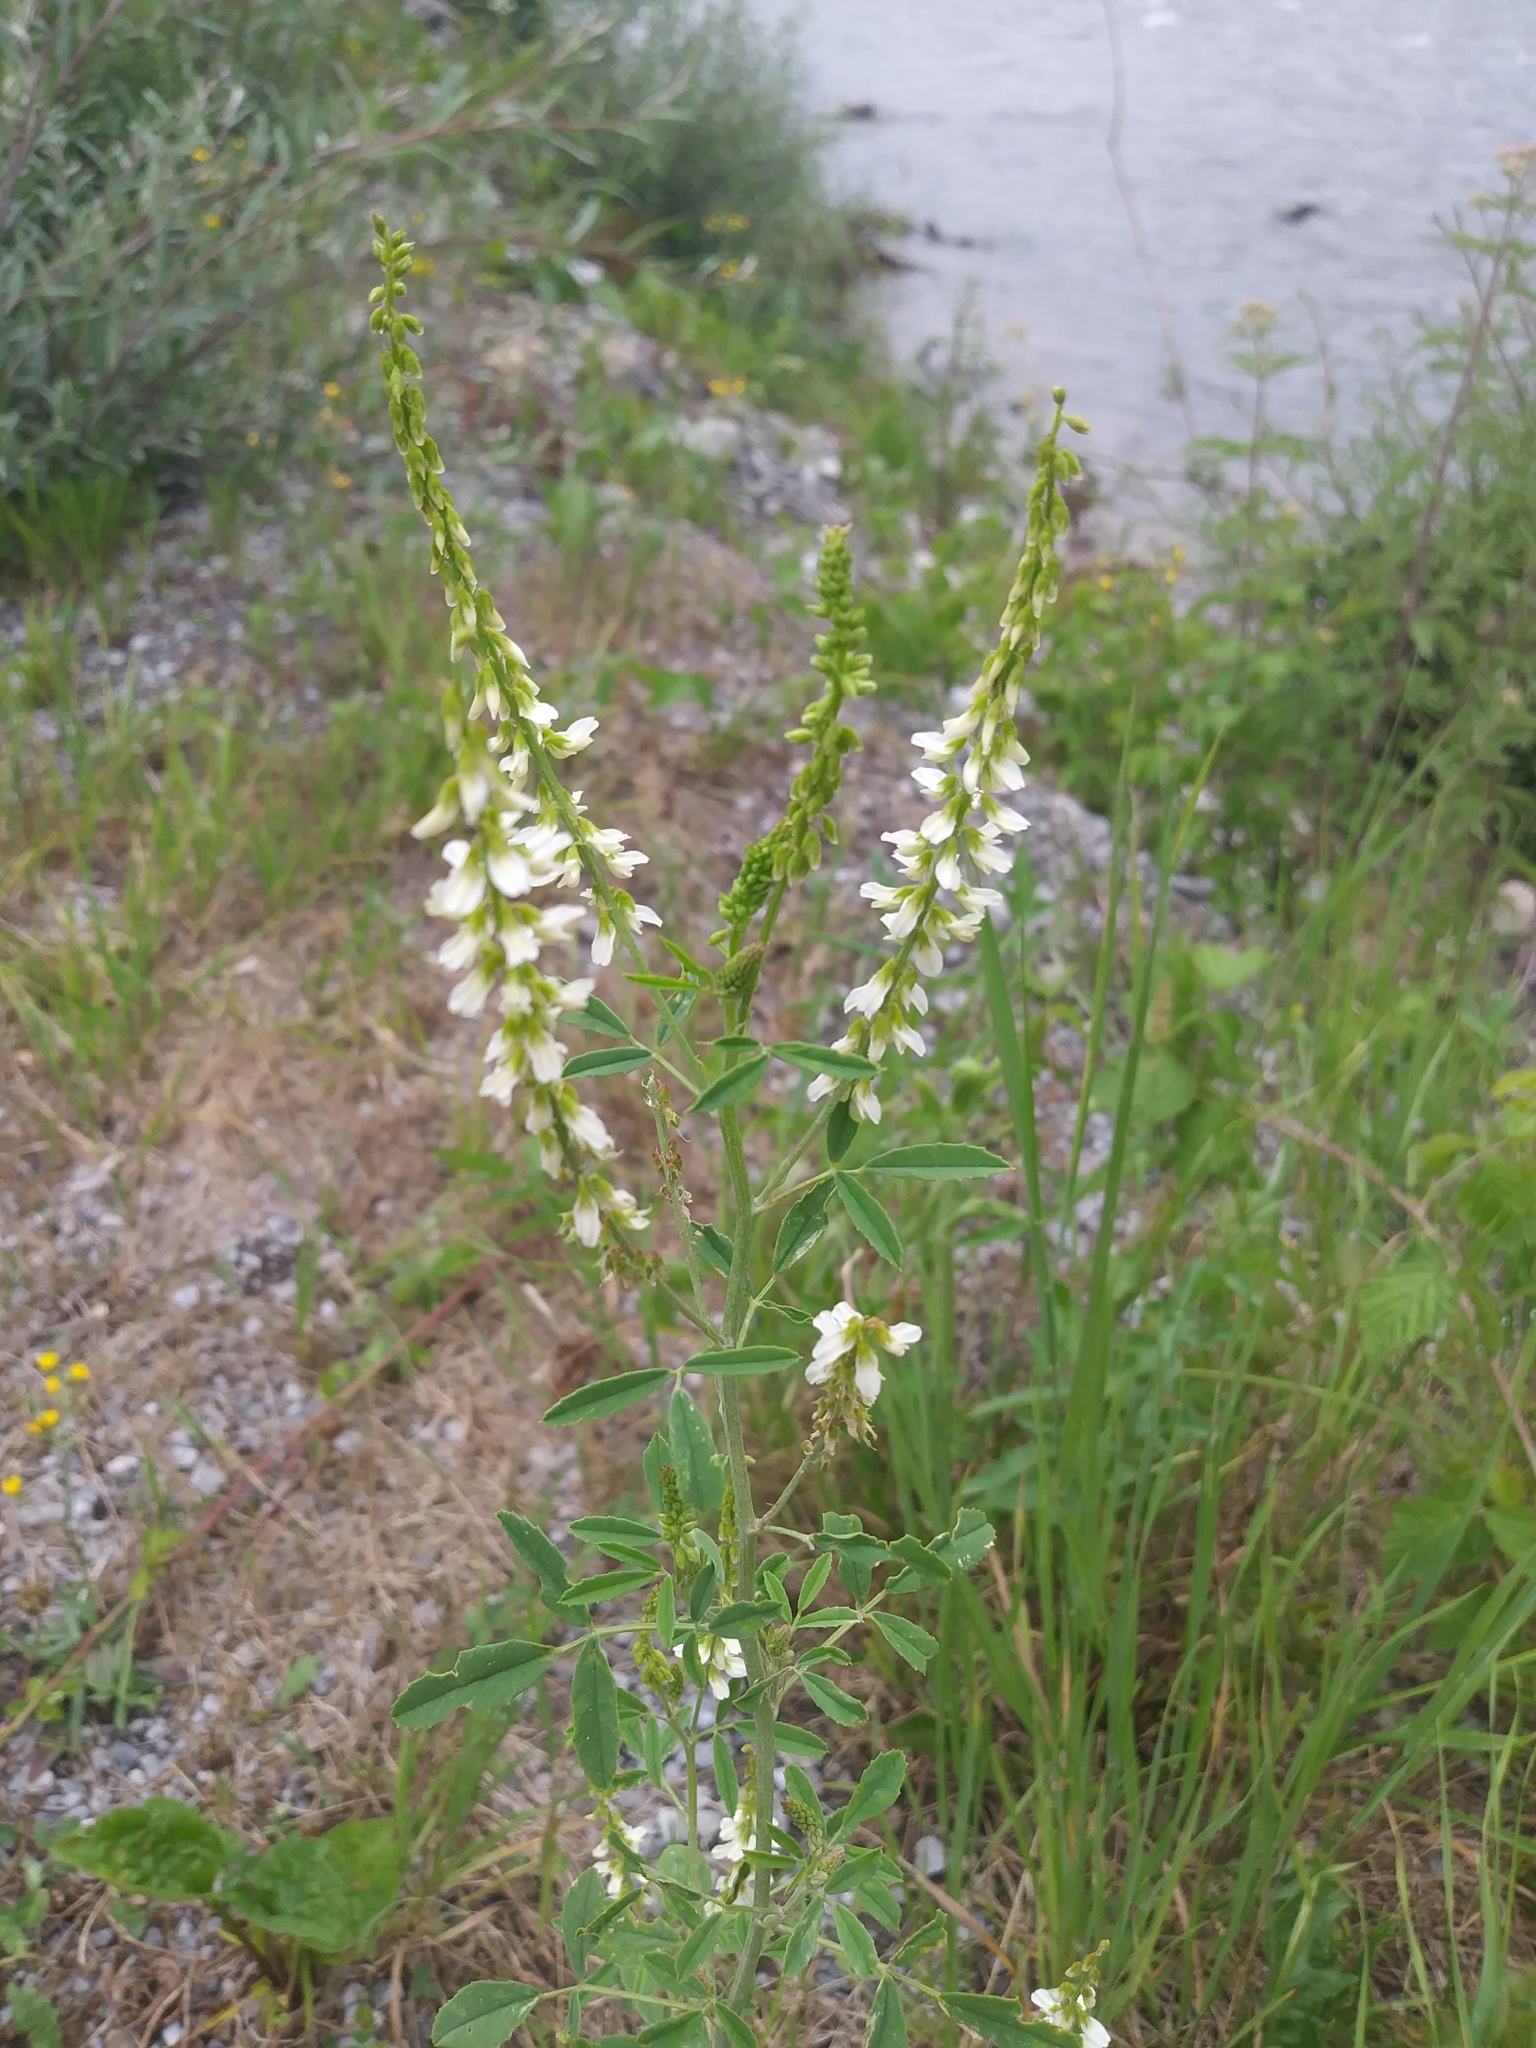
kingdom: Plantae
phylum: Tracheophyta
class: Magnoliopsida
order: Fabales
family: Fabaceae
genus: Melilotus
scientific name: Melilotus albus
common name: White melilot
